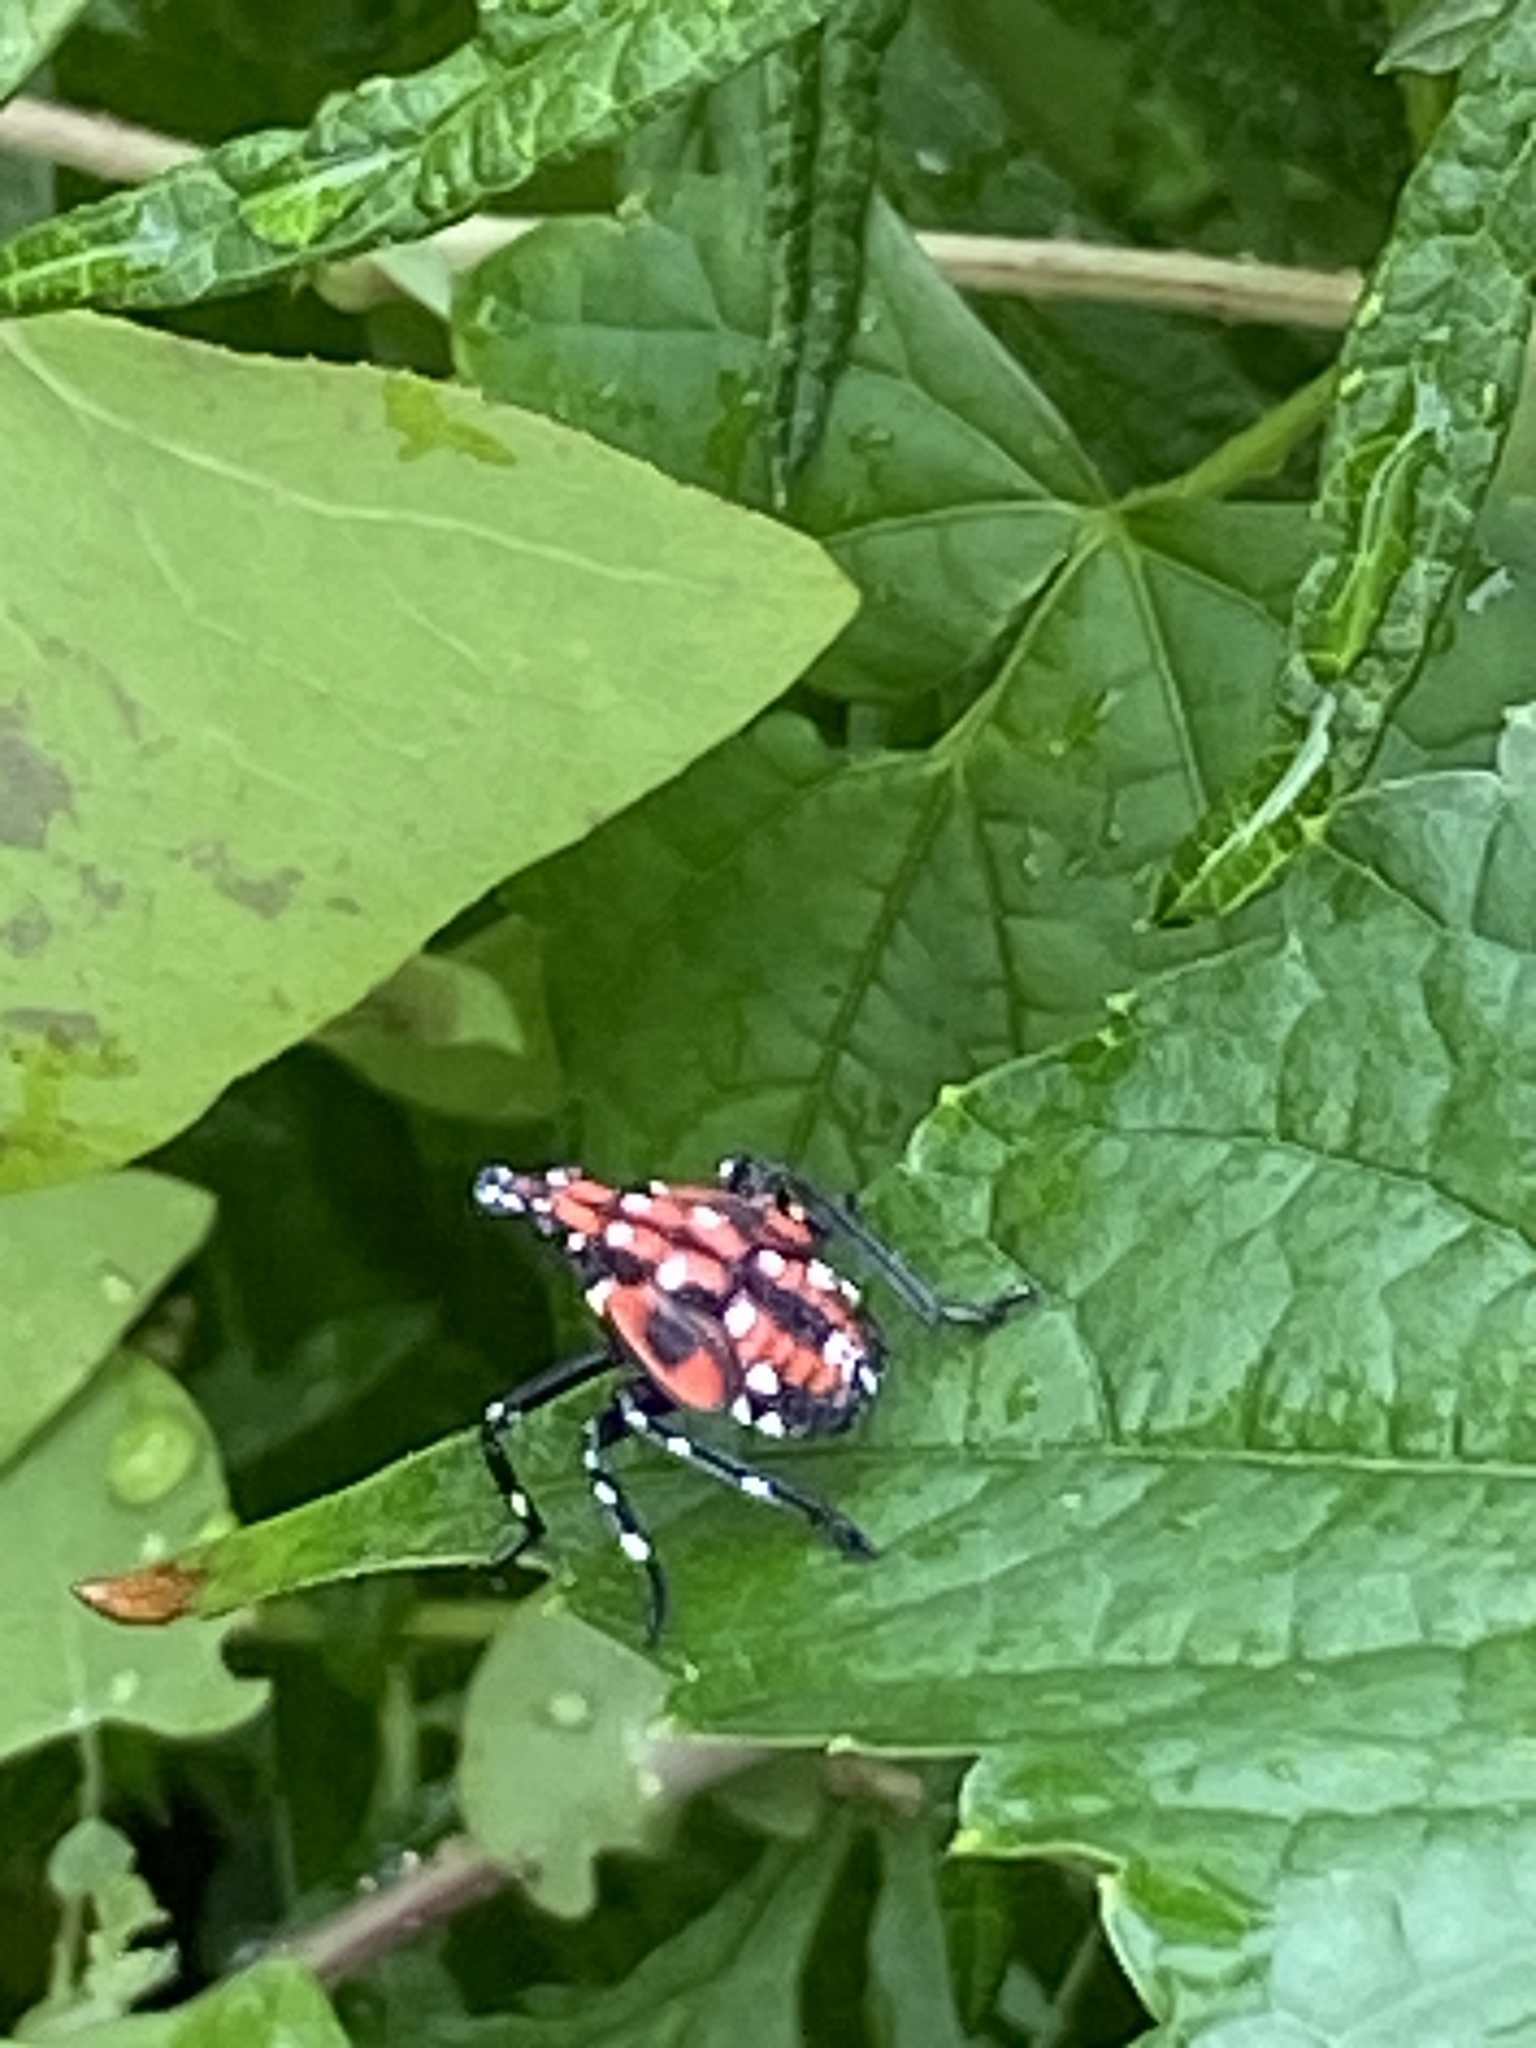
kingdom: Animalia
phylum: Arthropoda
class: Insecta
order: Hemiptera
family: Fulgoridae
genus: Lycorma
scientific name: Lycorma delicatula
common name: Spotted lanternfly
